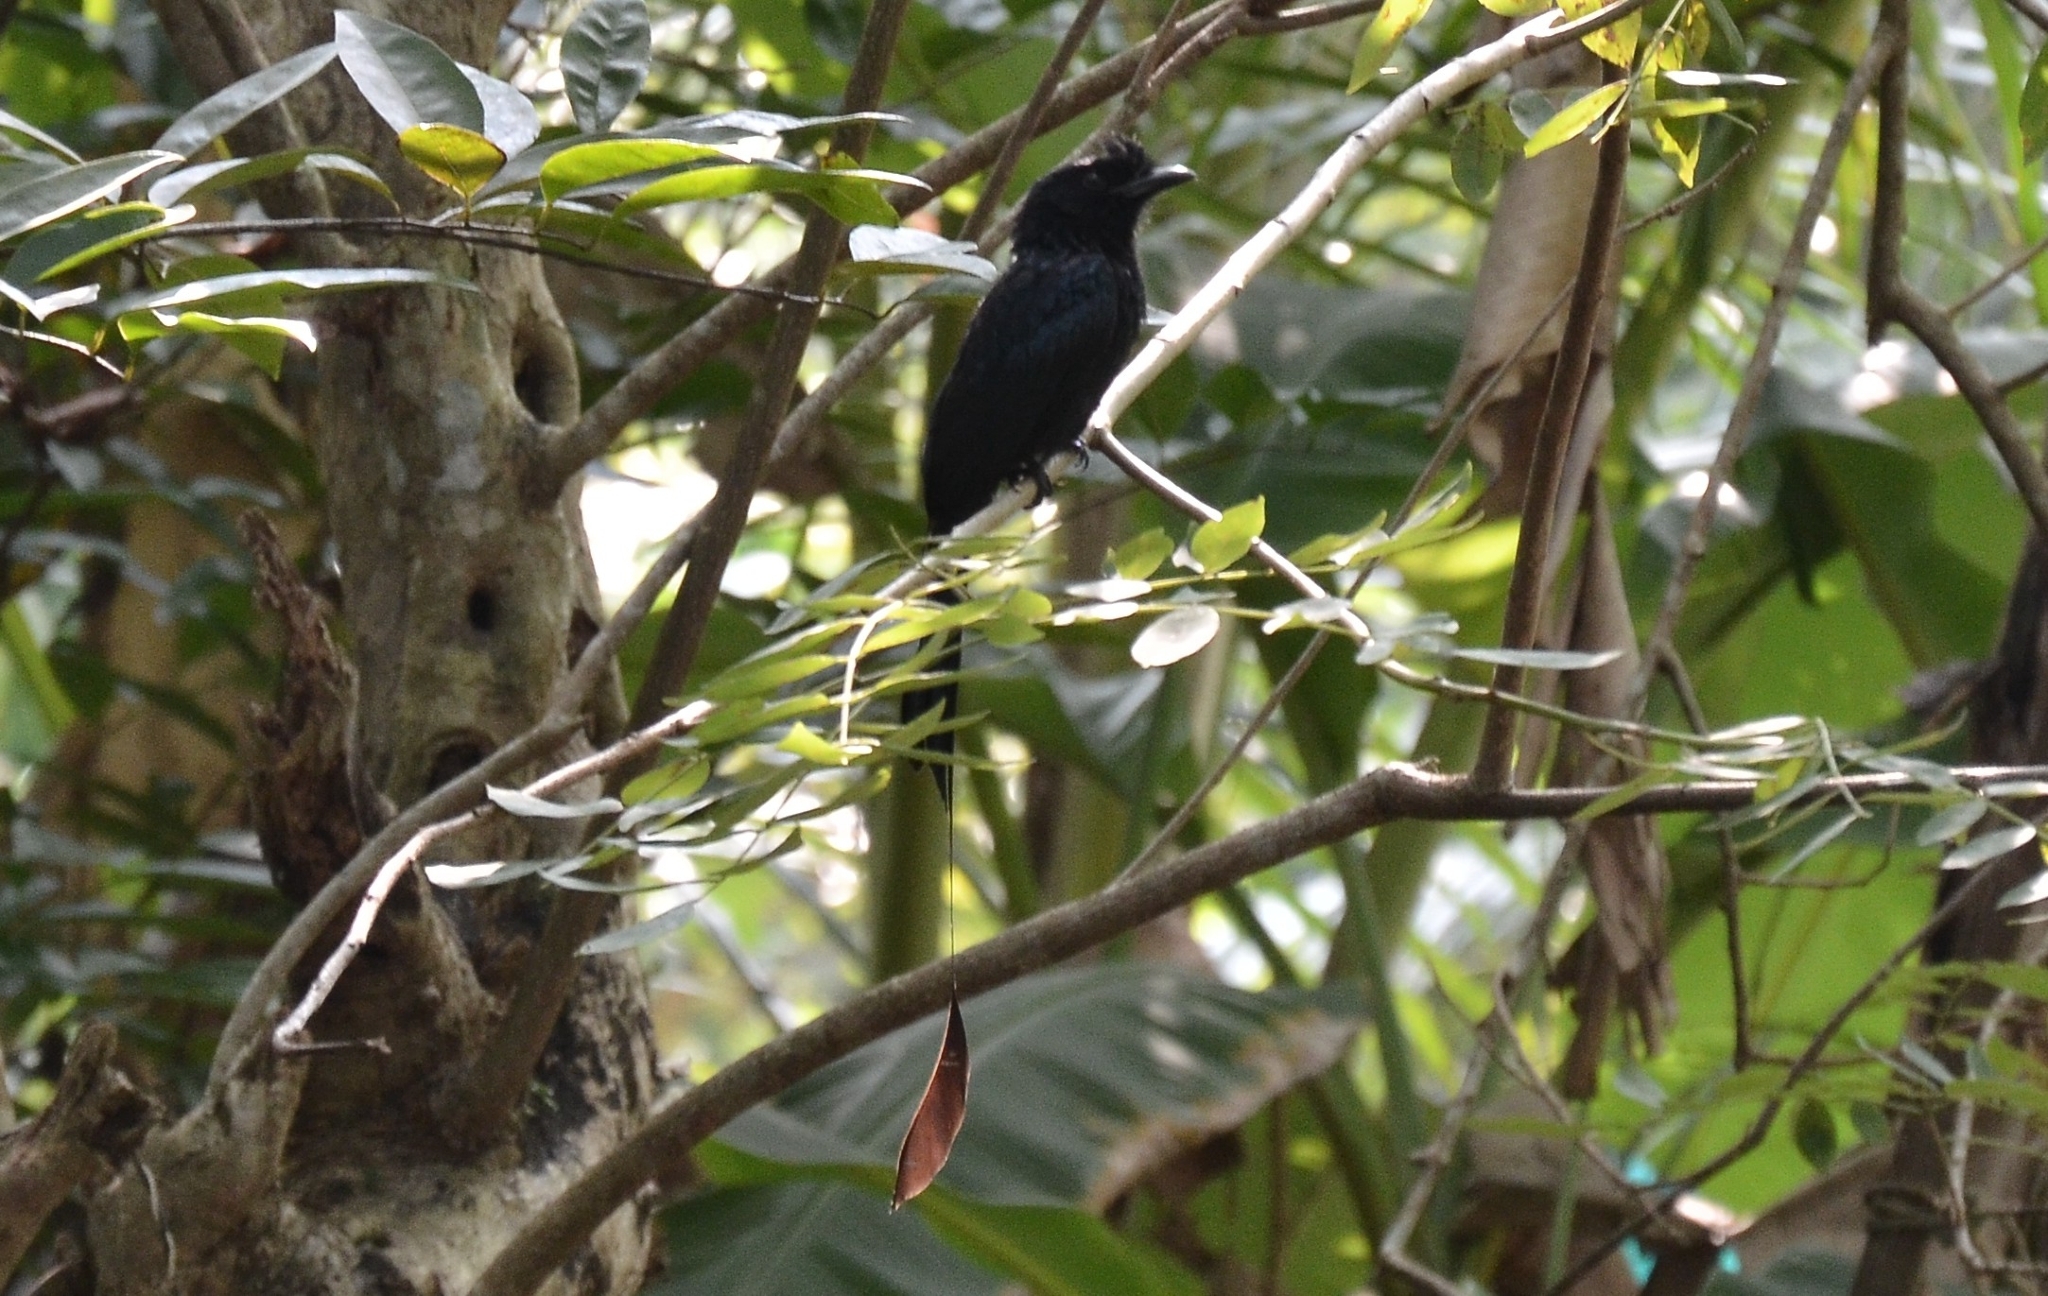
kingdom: Animalia
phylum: Chordata
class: Aves
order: Passeriformes
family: Dicruridae
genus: Dicrurus
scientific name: Dicrurus paradiseus
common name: Greater racket-tailed drongo
